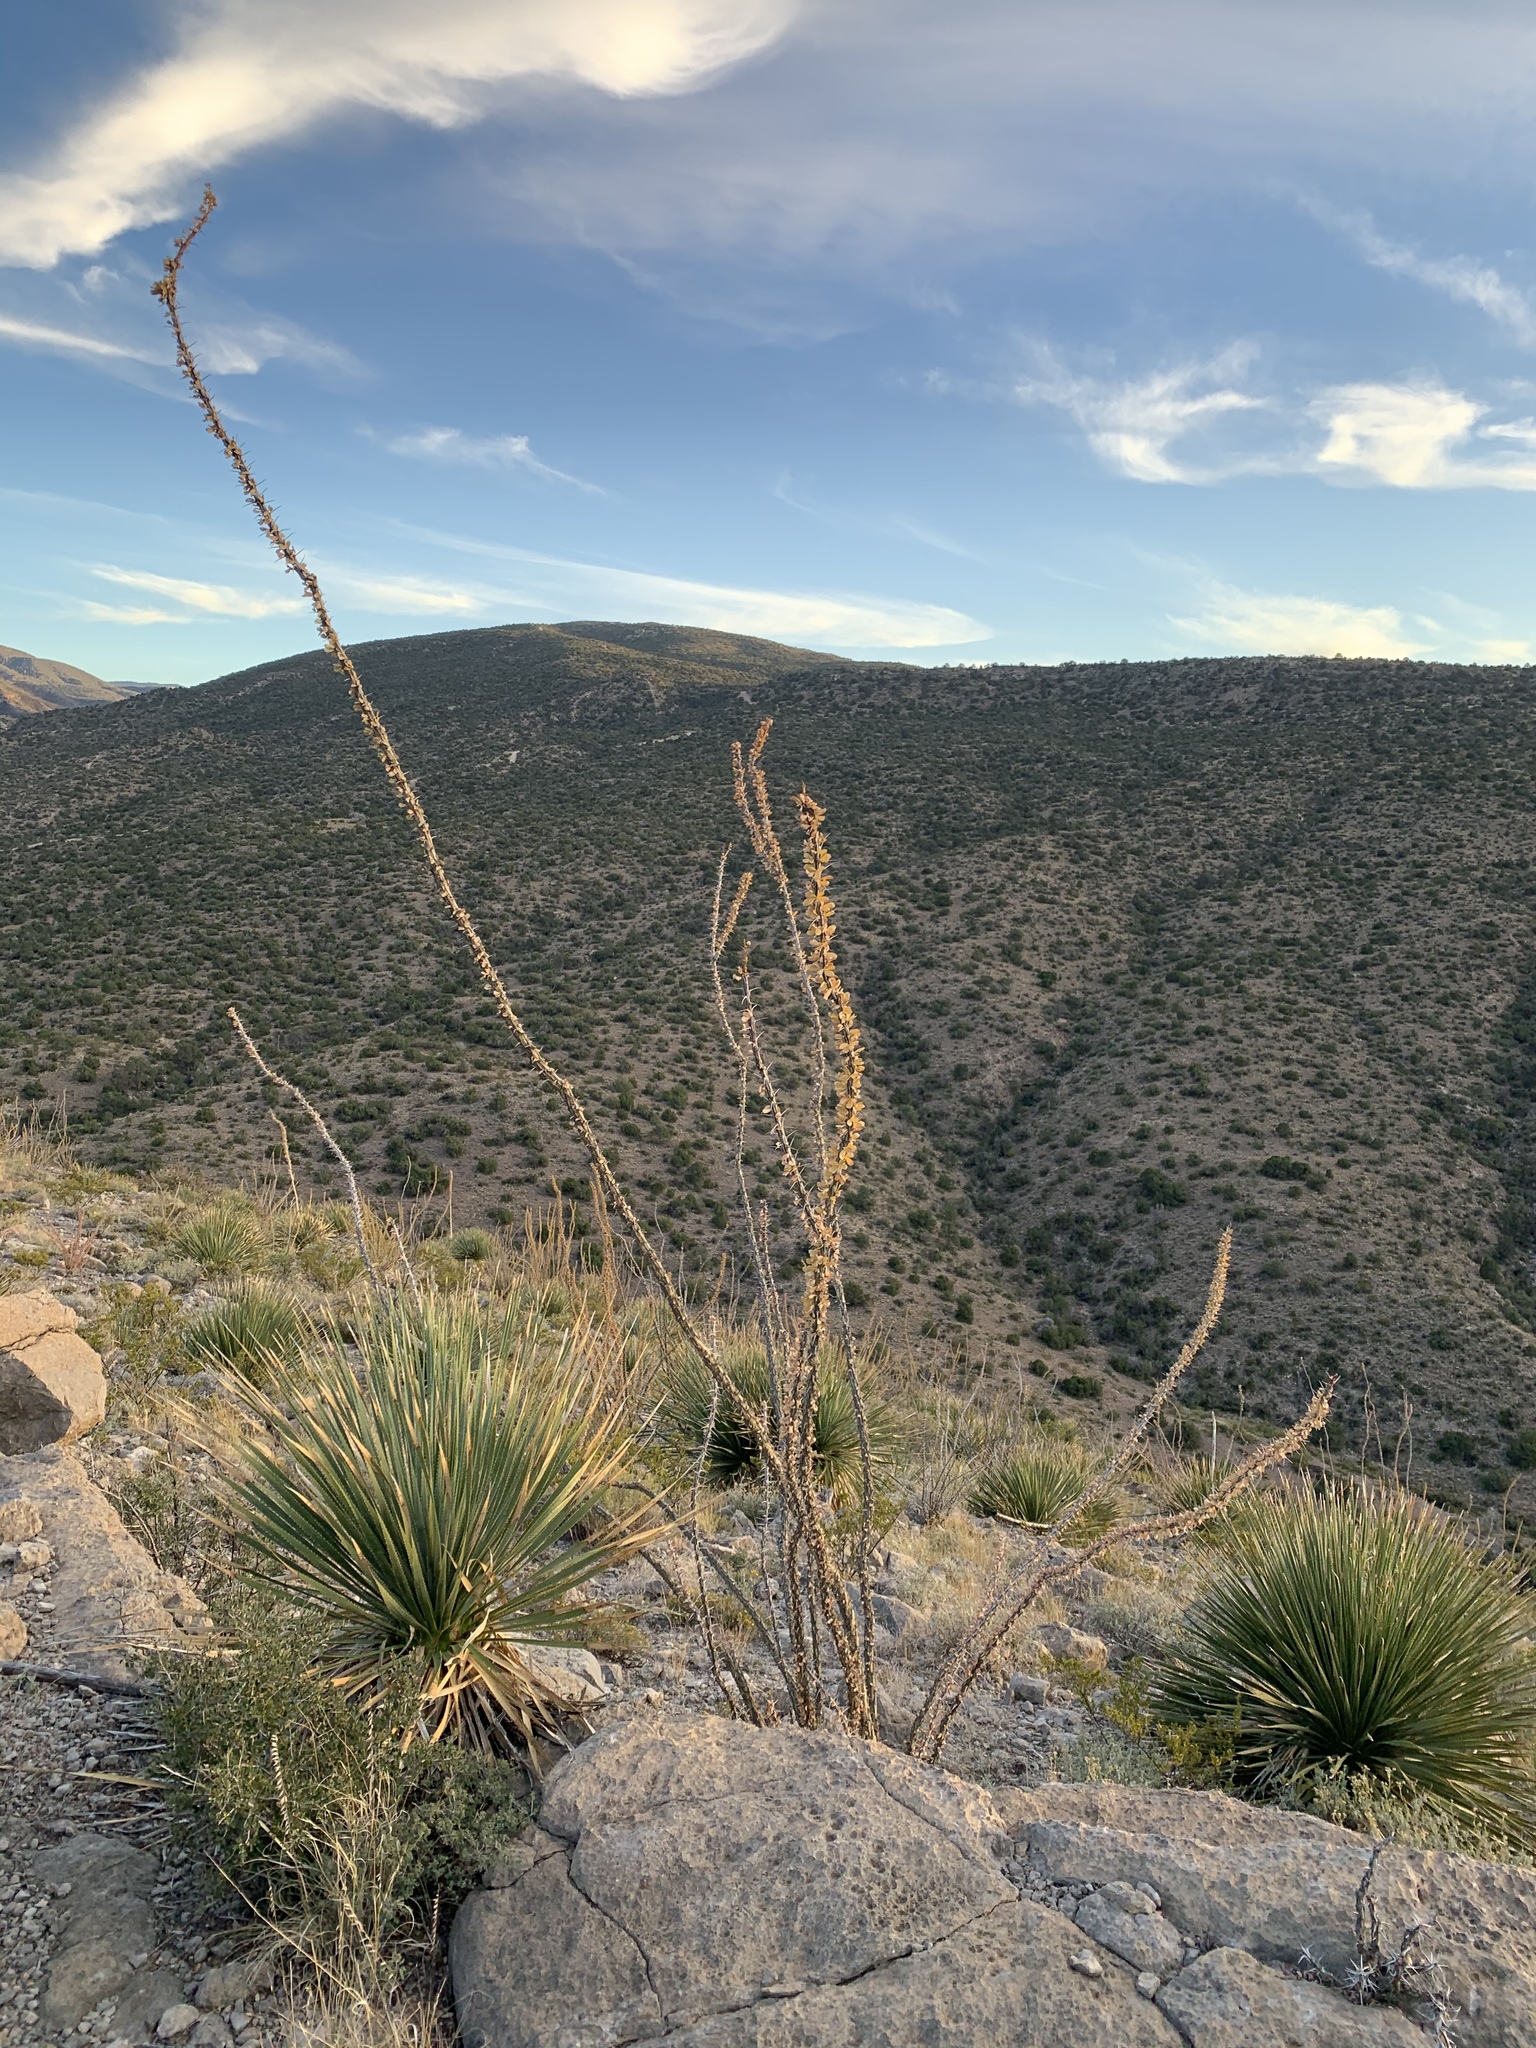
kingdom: Plantae
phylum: Tracheophyta
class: Magnoliopsida
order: Ericales
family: Fouquieriaceae
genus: Fouquieria
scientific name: Fouquieria splendens
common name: Vine-cactus
